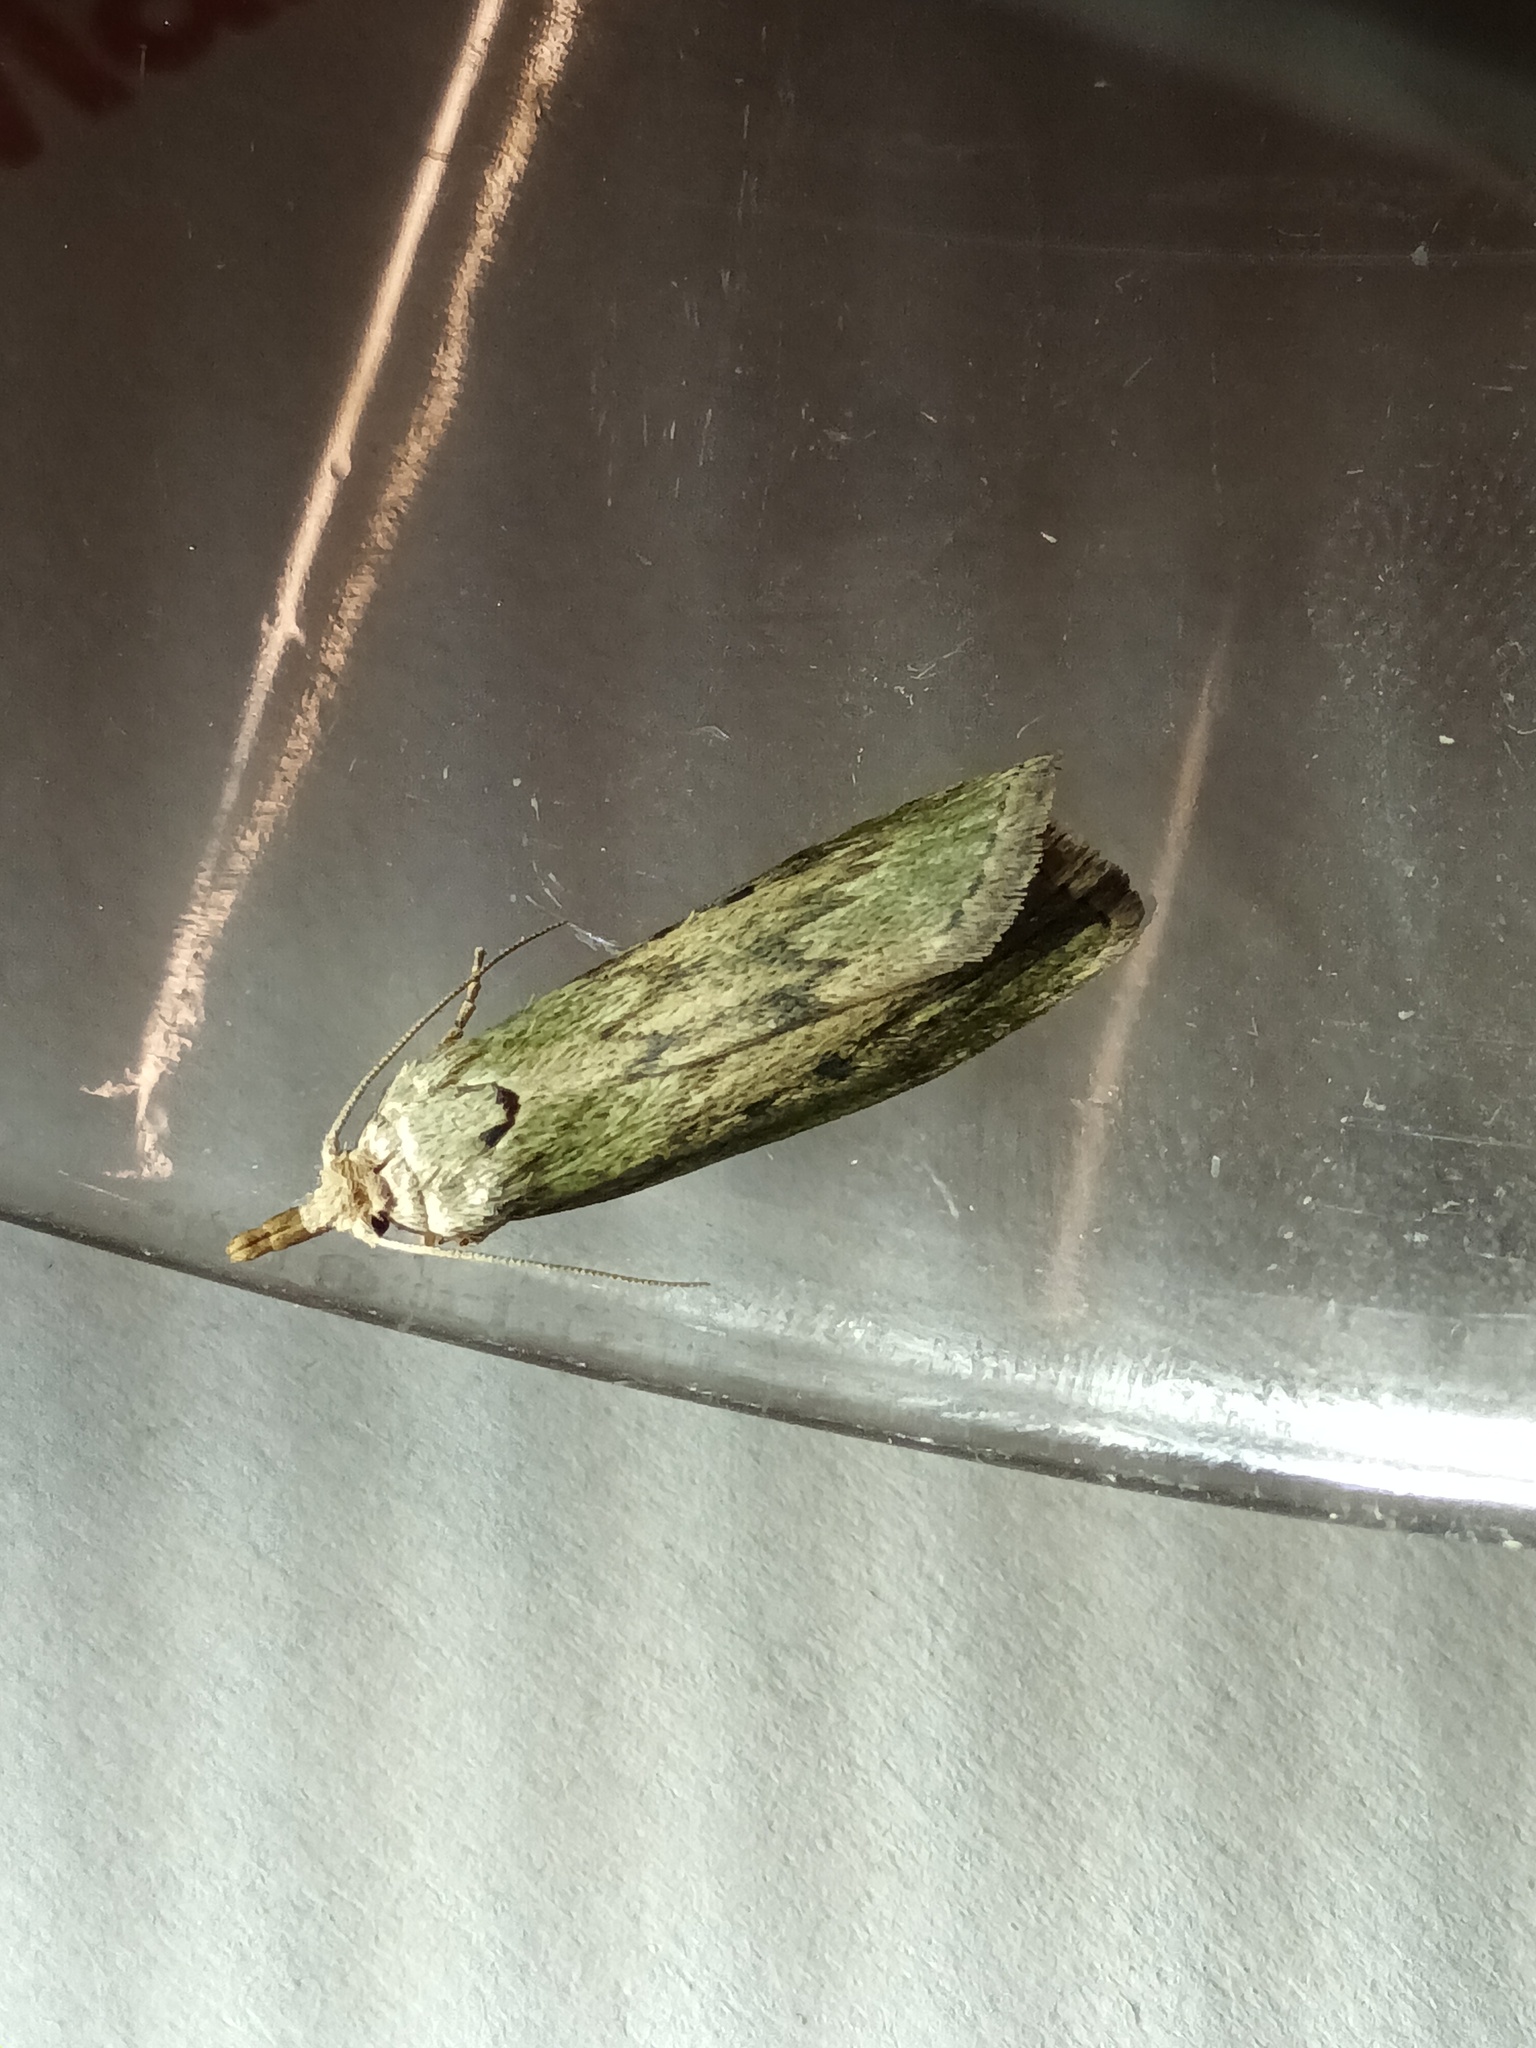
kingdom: Animalia
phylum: Arthropoda
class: Insecta
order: Lepidoptera
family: Pyralidae
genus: Aphomia
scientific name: Aphomia sociella
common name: Bee moth
